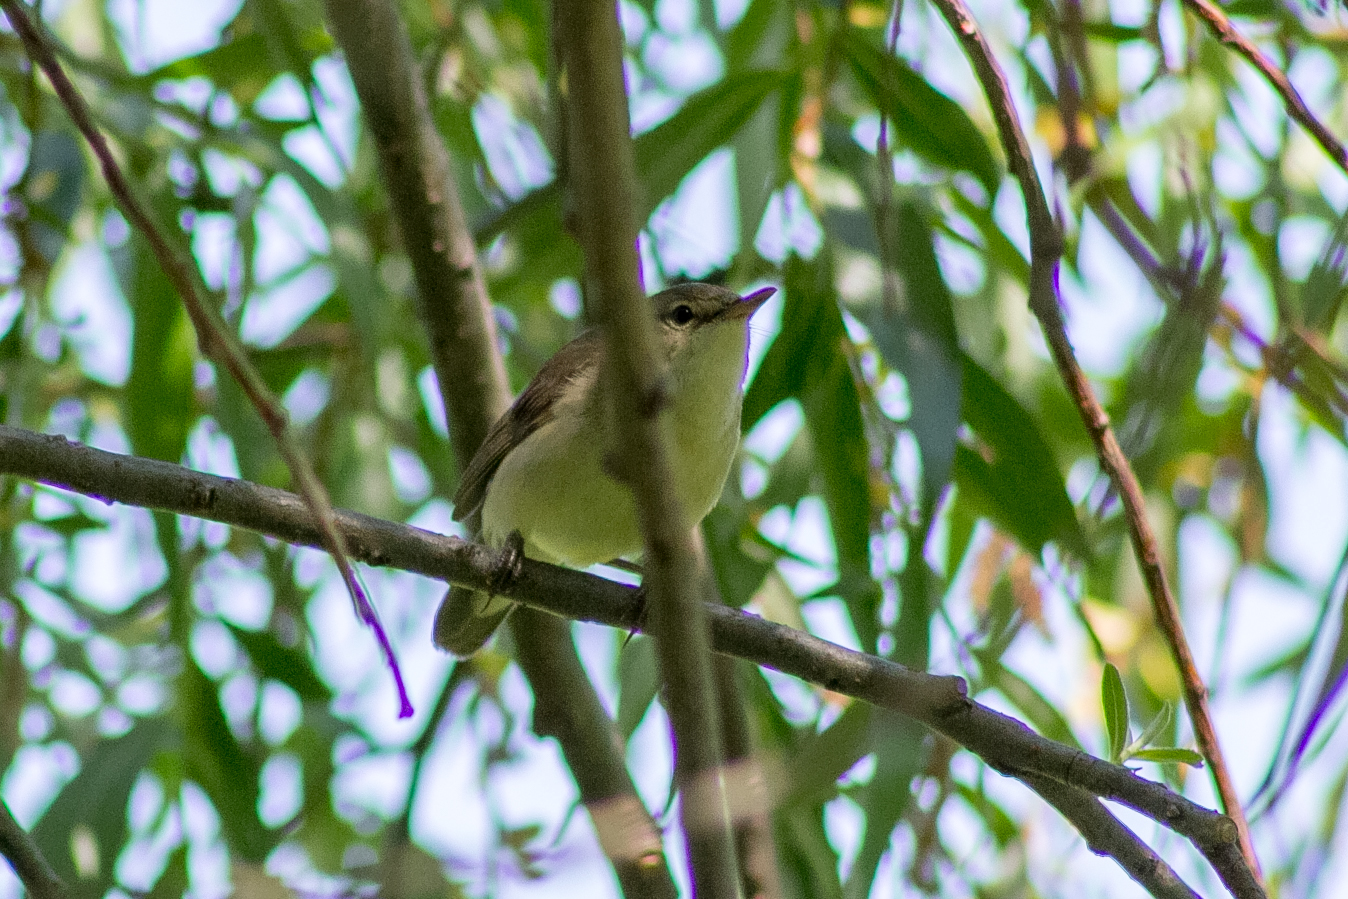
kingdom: Animalia
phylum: Chordata
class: Aves
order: Passeriformes
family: Acrocephalidae
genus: Acrocephalus
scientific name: Acrocephalus dumetorum
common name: Blyth's reed warbler
